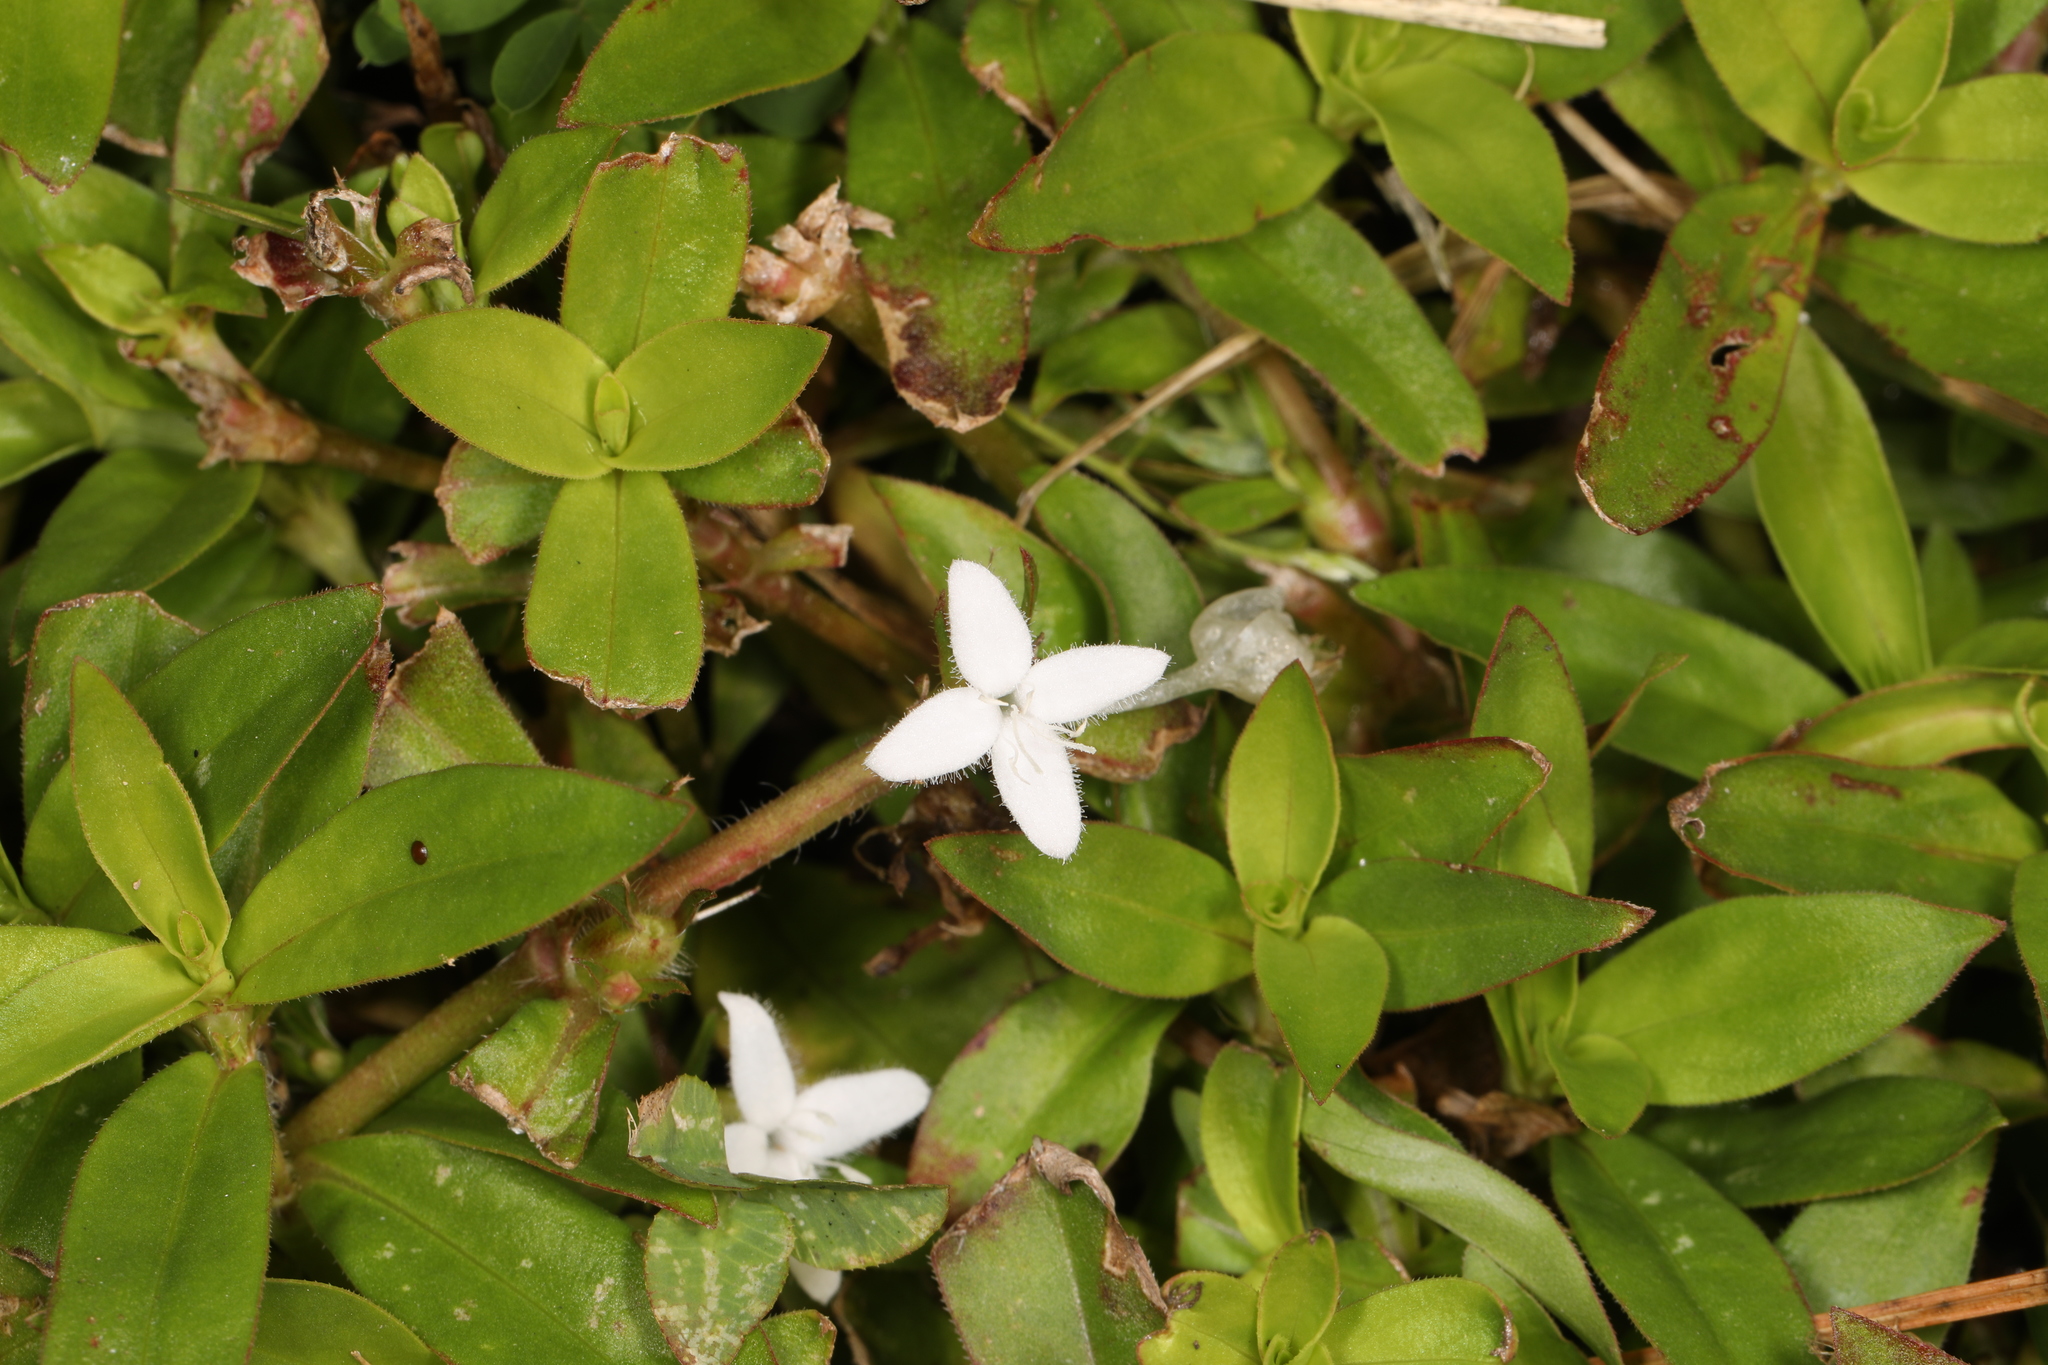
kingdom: Plantae
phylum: Tracheophyta
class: Magnoliopsida
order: Gentianales
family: Rubiaceae
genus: Diodia
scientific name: Diodia virginiana
